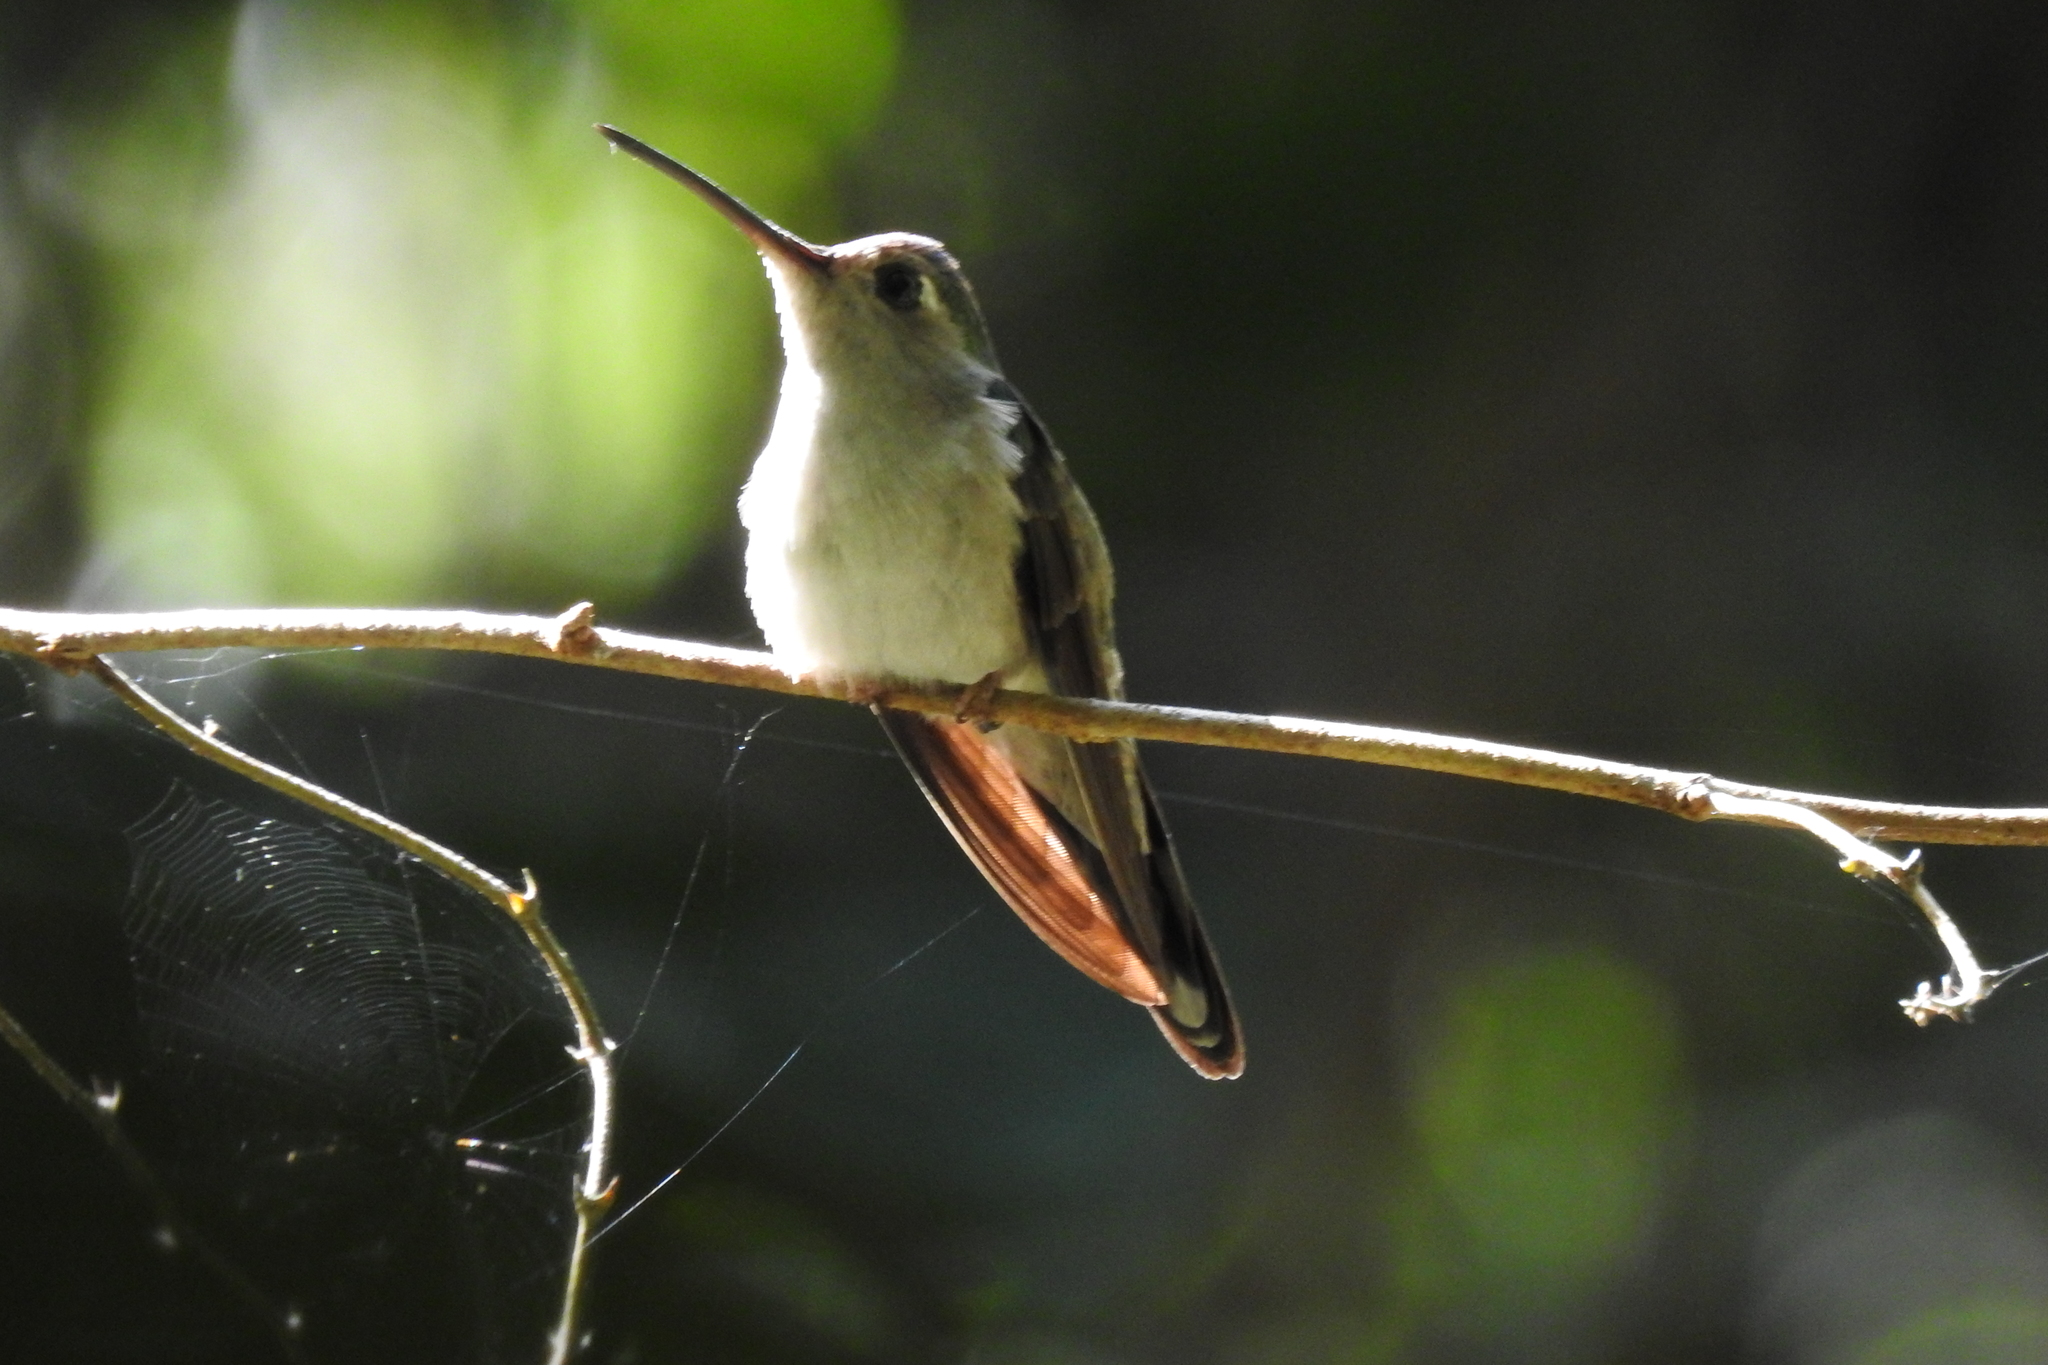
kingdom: Animalia
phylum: Chordata
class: Aves
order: Apodiformes
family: Trochilidae
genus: Pampa
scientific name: Pampa curvipennis
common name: Curve-winged sabrewing
